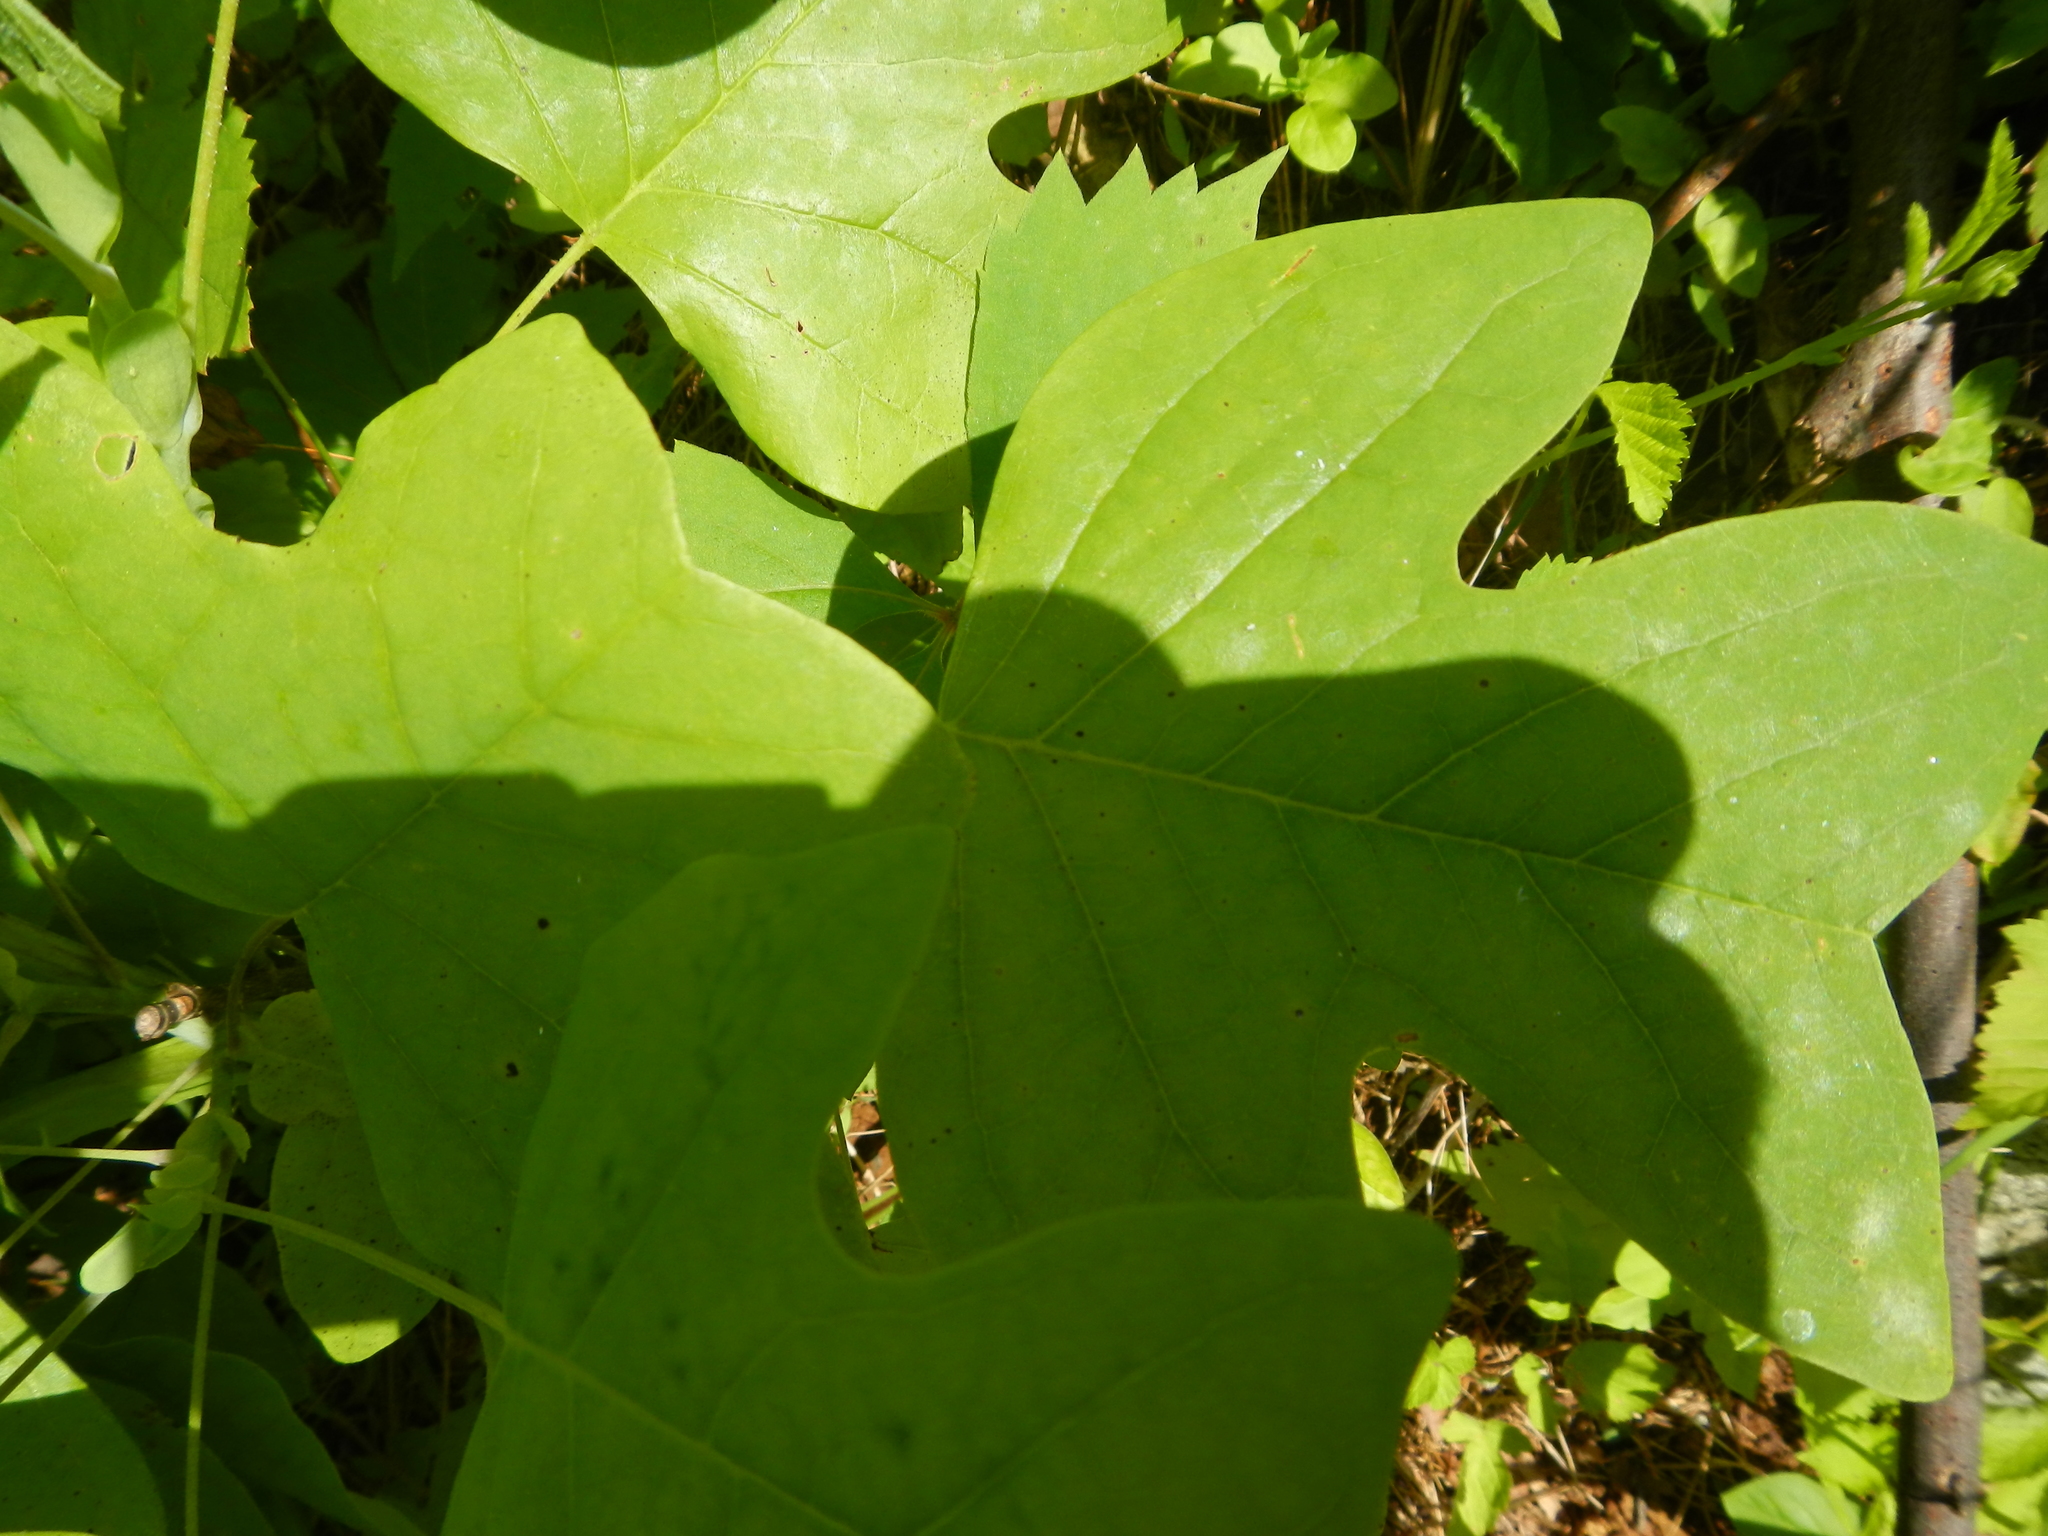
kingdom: Plantae
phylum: Tracheophyta
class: Magnoliopsida
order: Magnoliales
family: Magnoliaceae
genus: Liriodendron
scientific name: Liriodendron tulipifera
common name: Tulip tree
